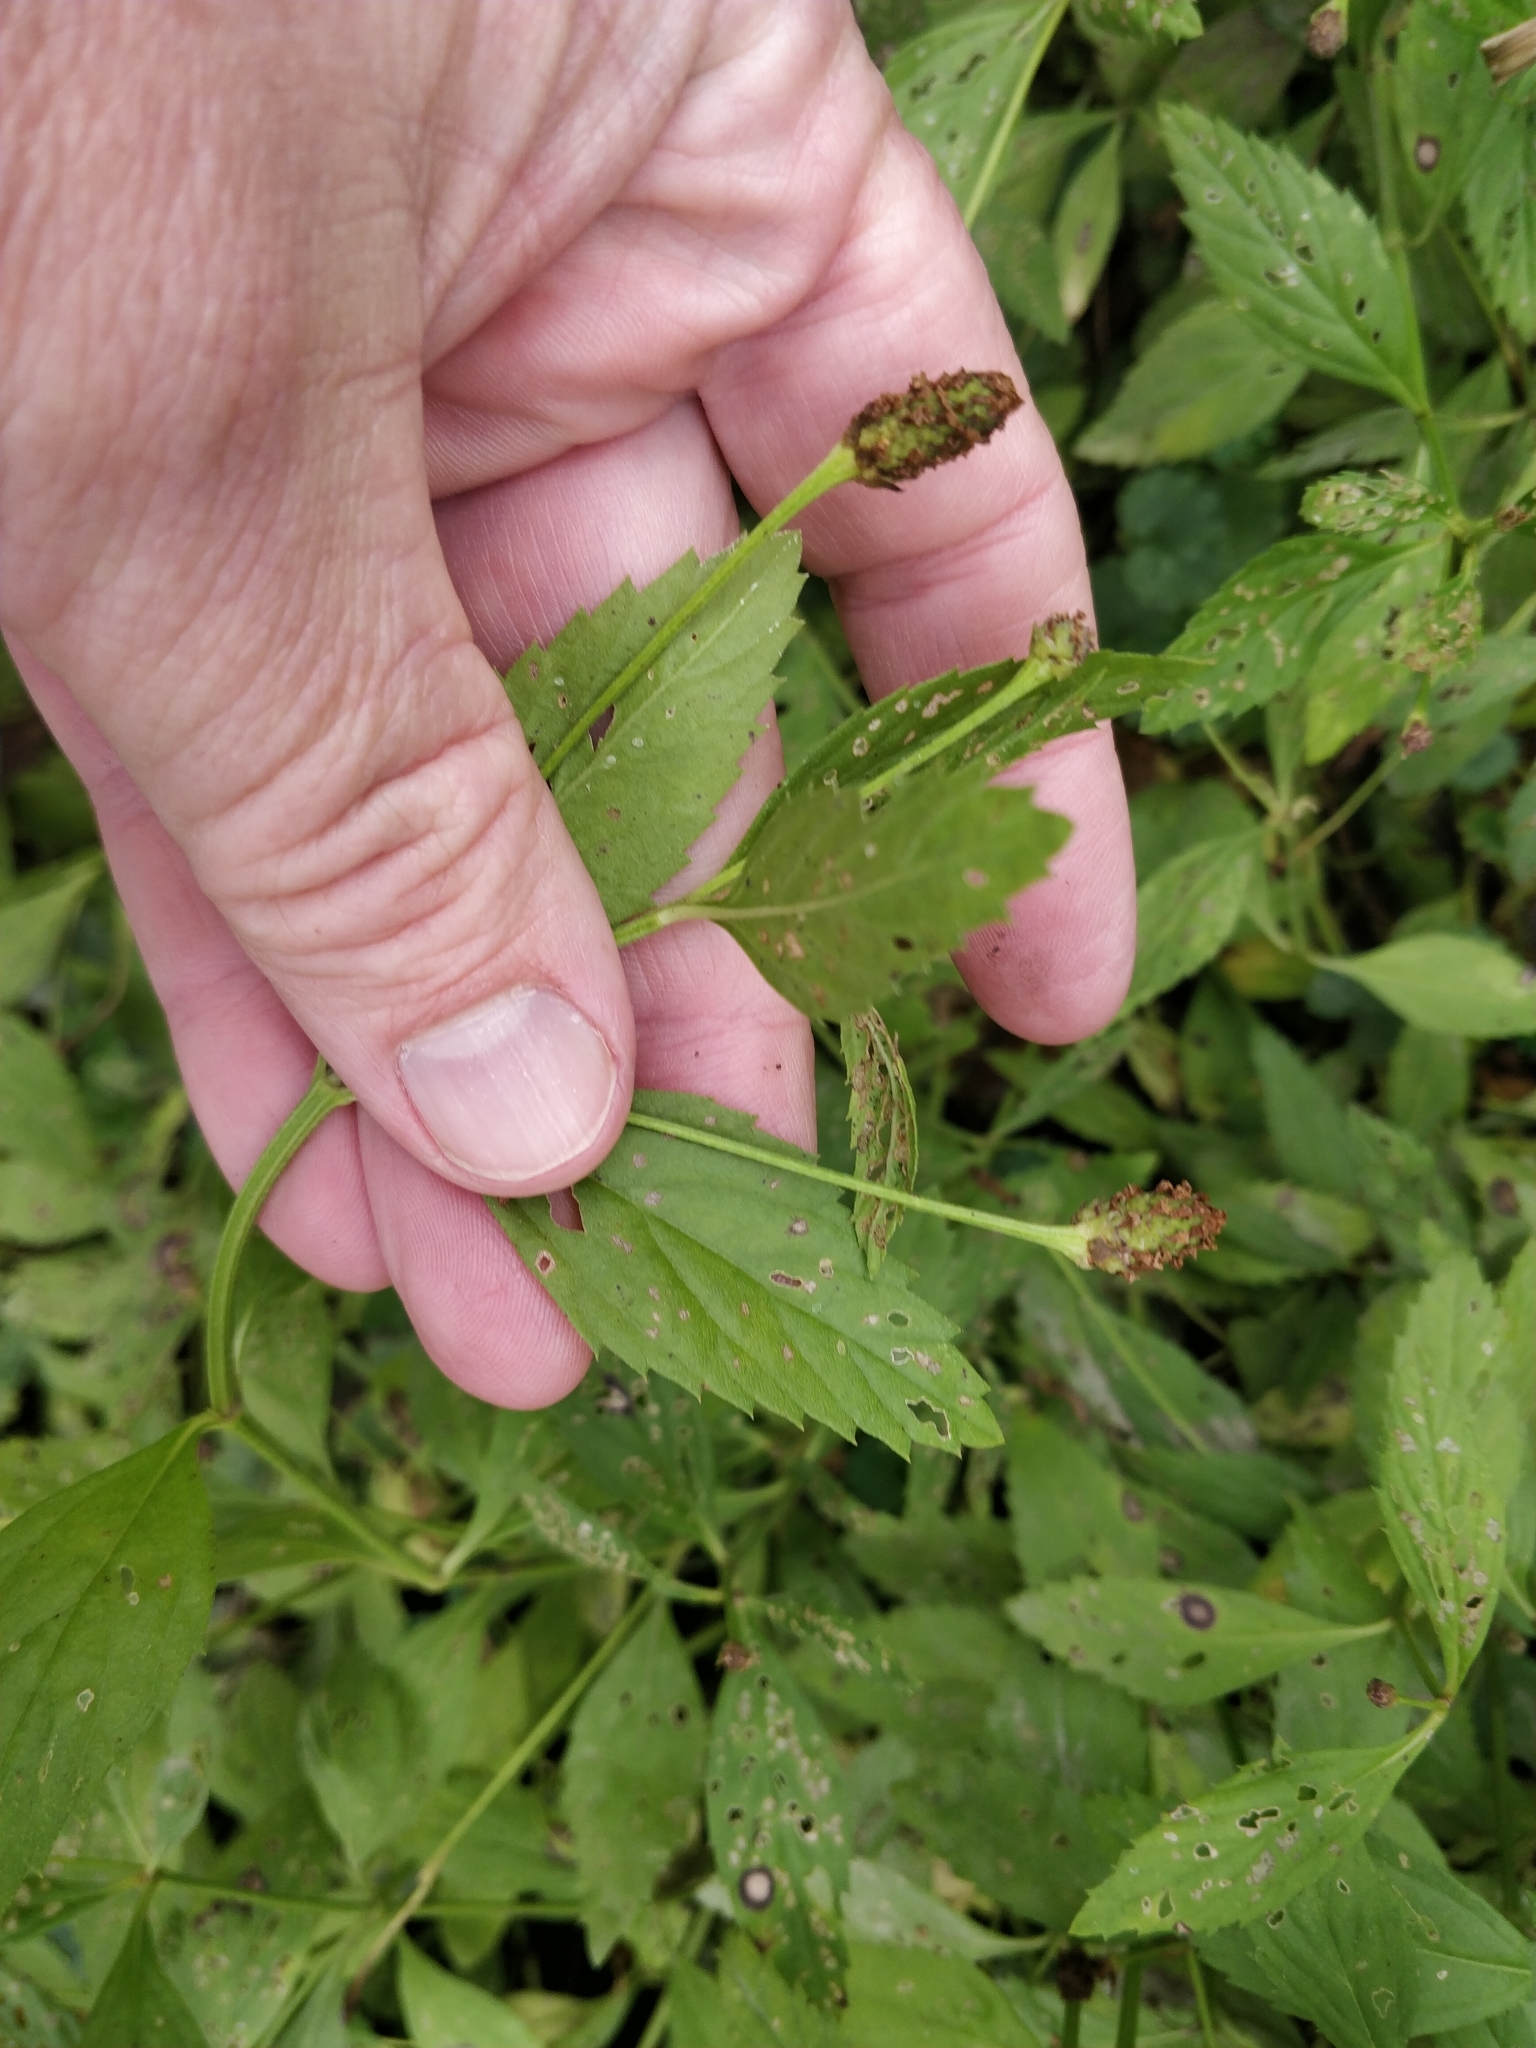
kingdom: Plantae
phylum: Tracheophyta
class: Magnoliopsida
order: Lamiales
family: Verbenaceae
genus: Phyla
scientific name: Phyla lanceolata
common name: Northern fogfruit
